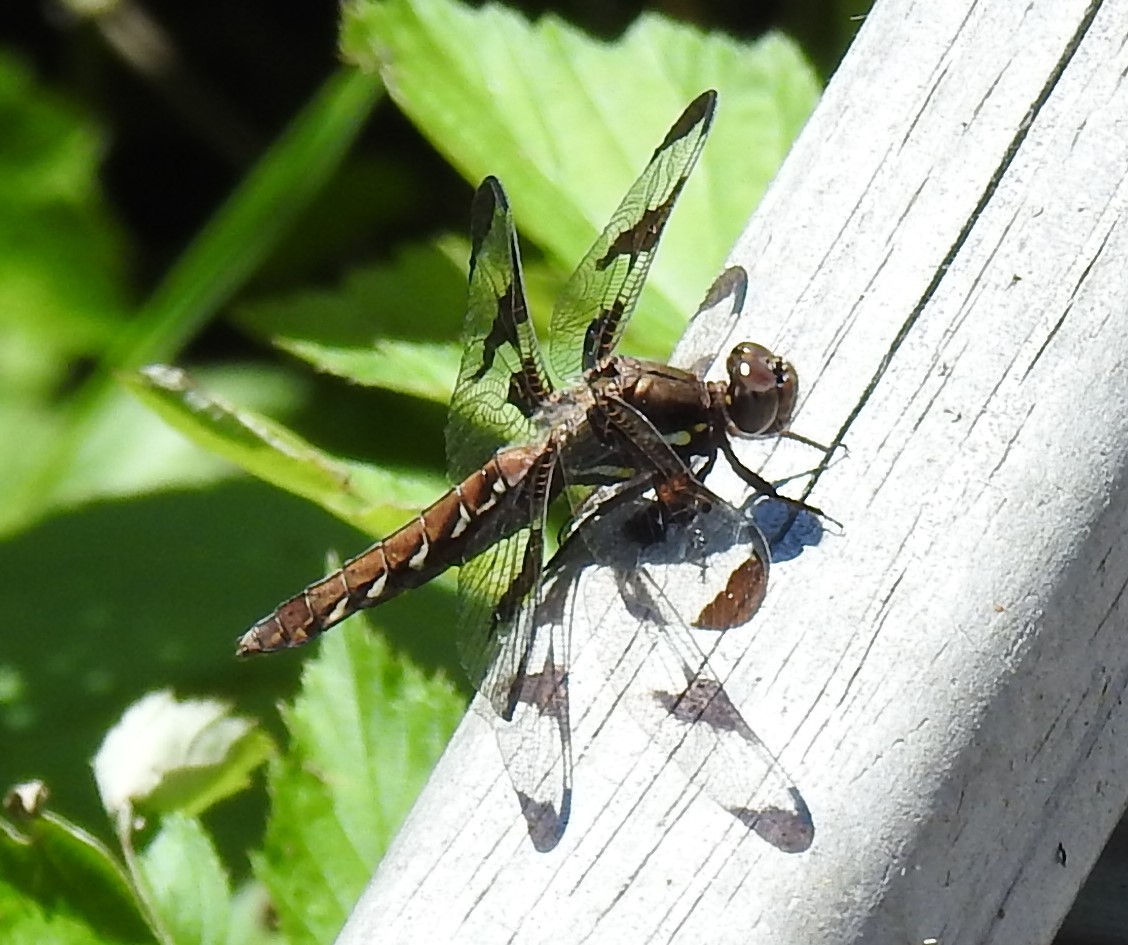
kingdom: Animalia
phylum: Arthropoda
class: Insecta
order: Odonata
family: Libellulidae
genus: Plathemis
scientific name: Plathemis lydia
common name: Common whitetail
